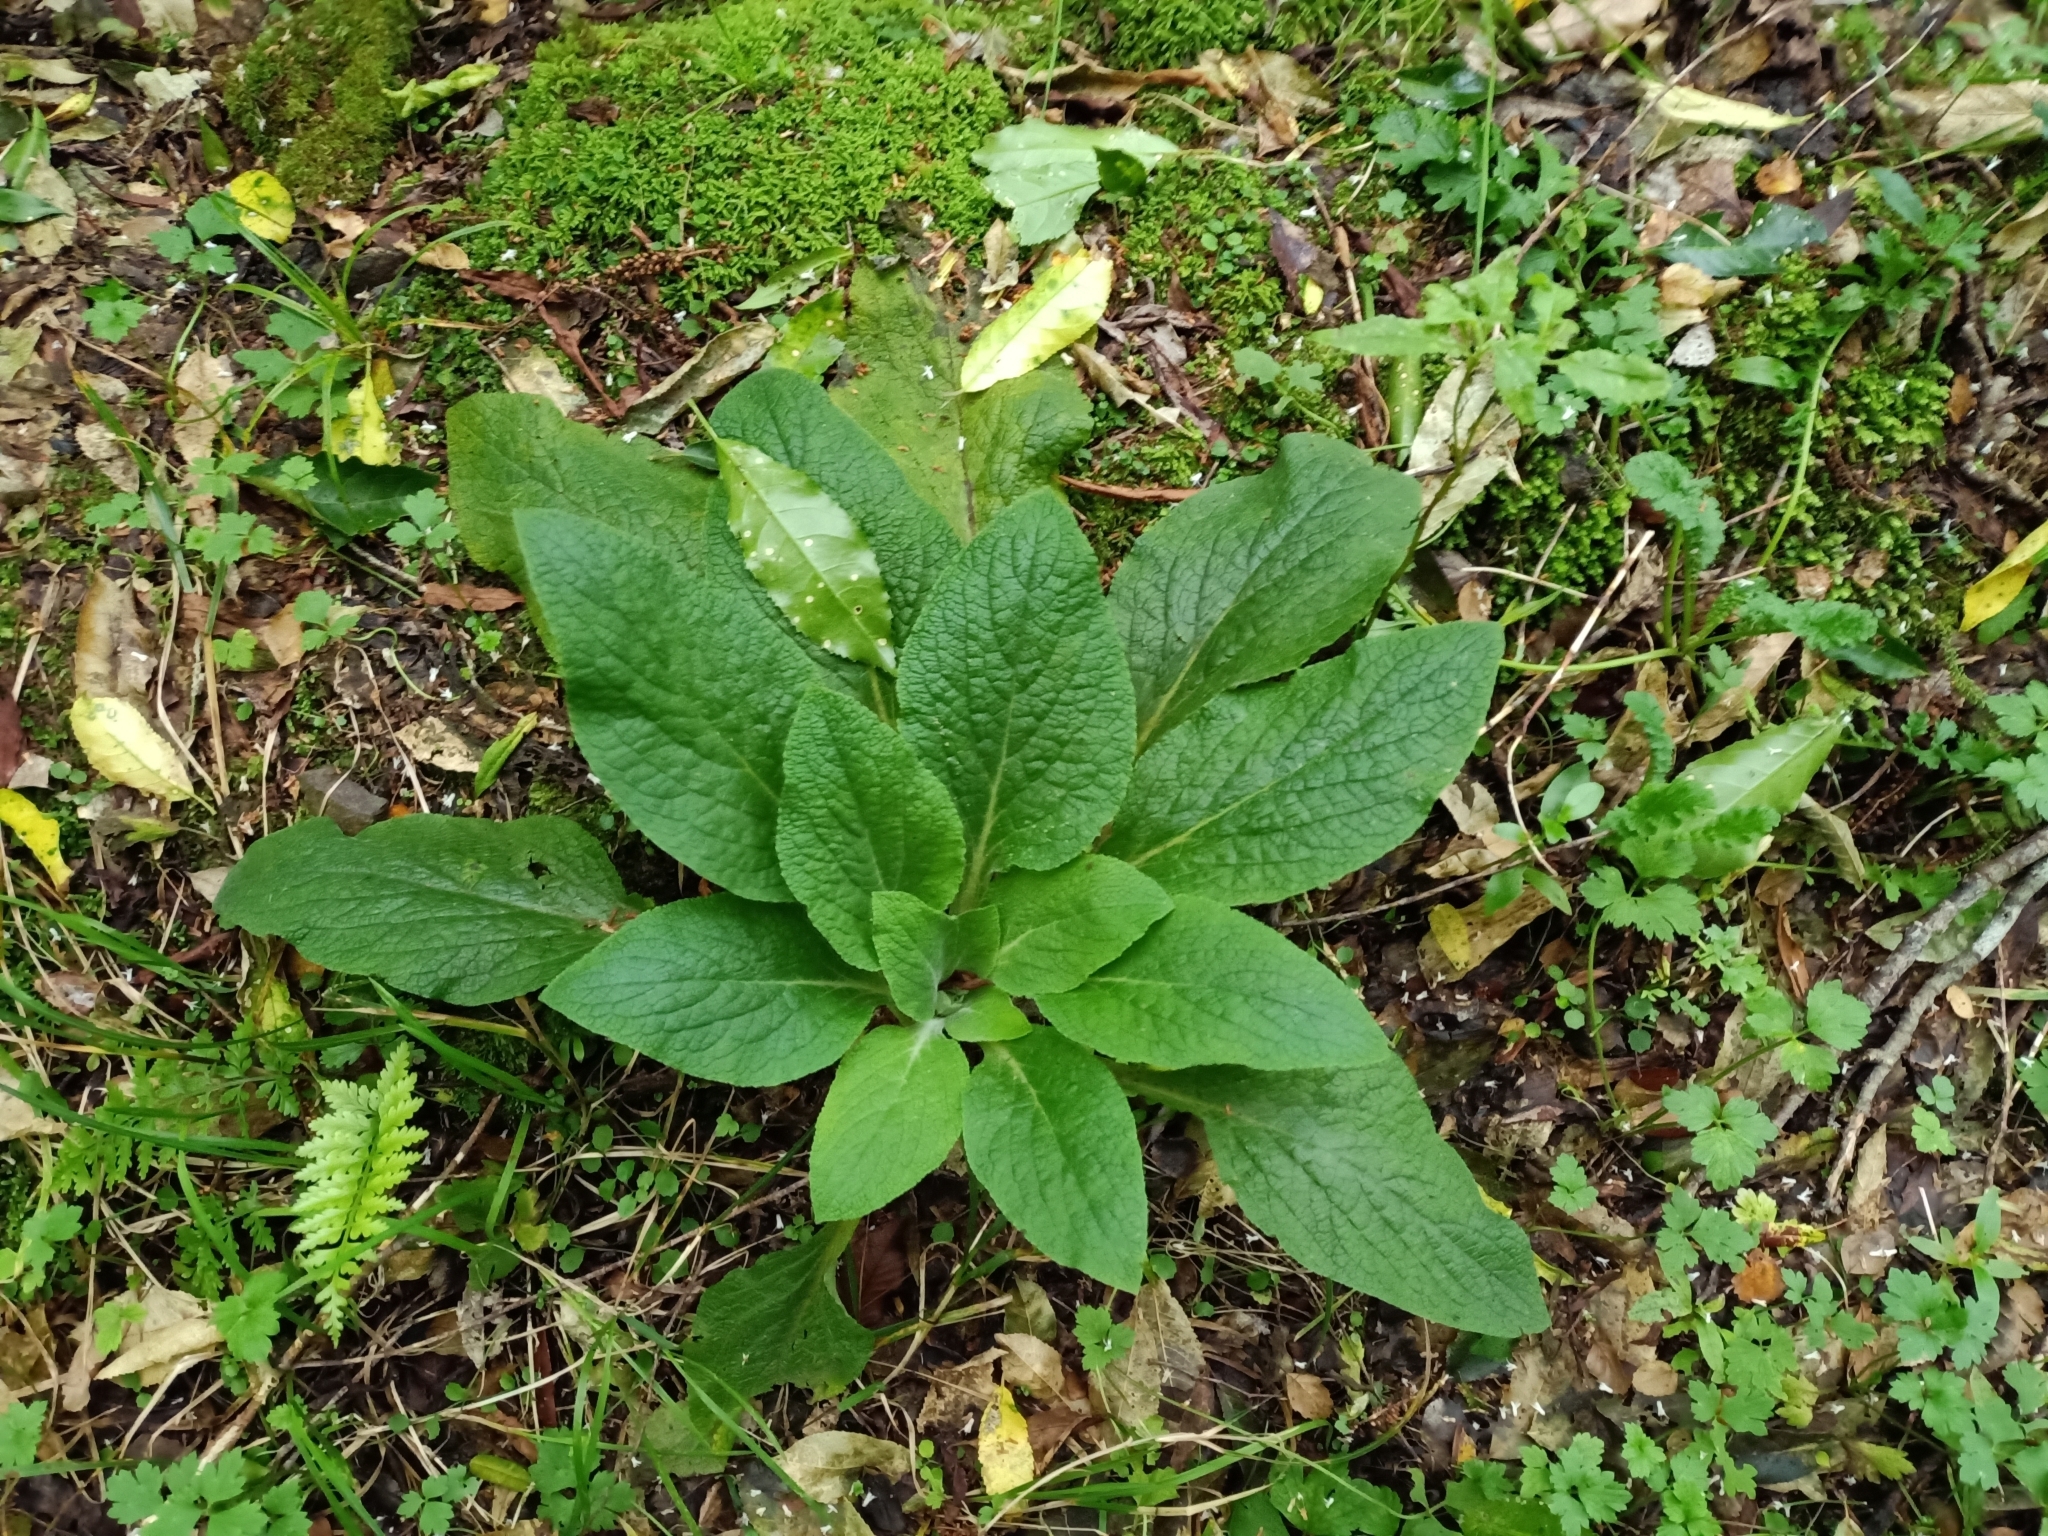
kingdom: Plantae
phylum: Tracheophyta
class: Magnoliopsida
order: Lamiales
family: Plantaginaceae
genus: Digitalis
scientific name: Digitalis purpurea
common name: Foxglove
